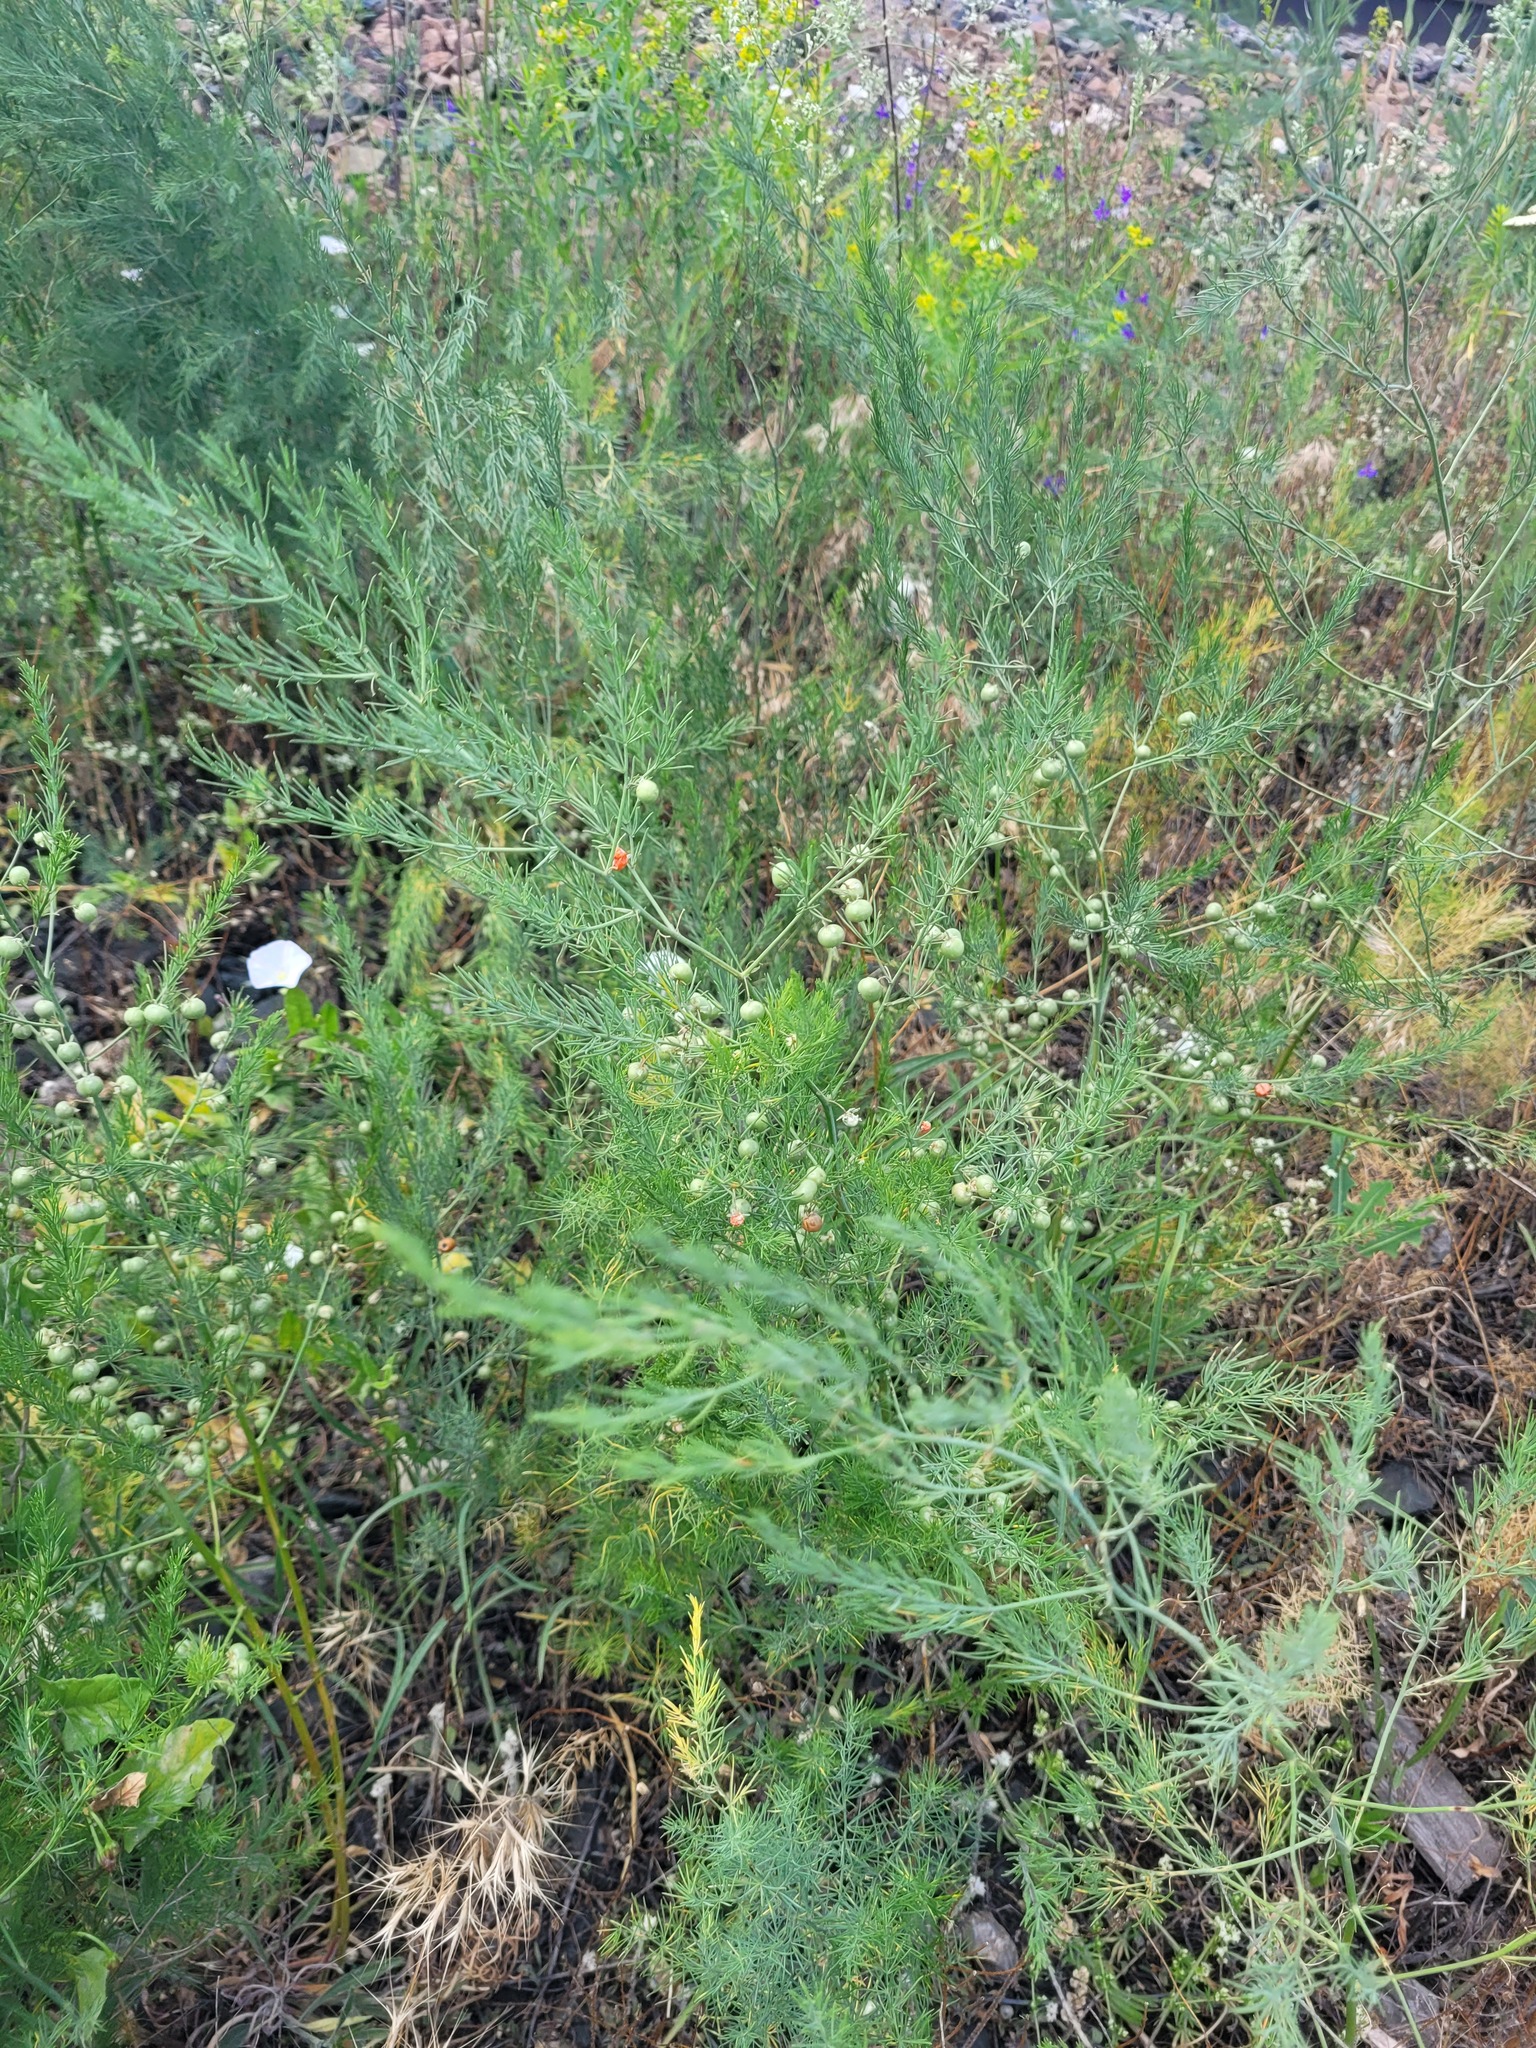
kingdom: Plantae
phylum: Tracheophyta
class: Liliopsida
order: Asparagales
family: Asparagaceae
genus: Asparagus
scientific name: Asparagus officinalis
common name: Garden asparagus
